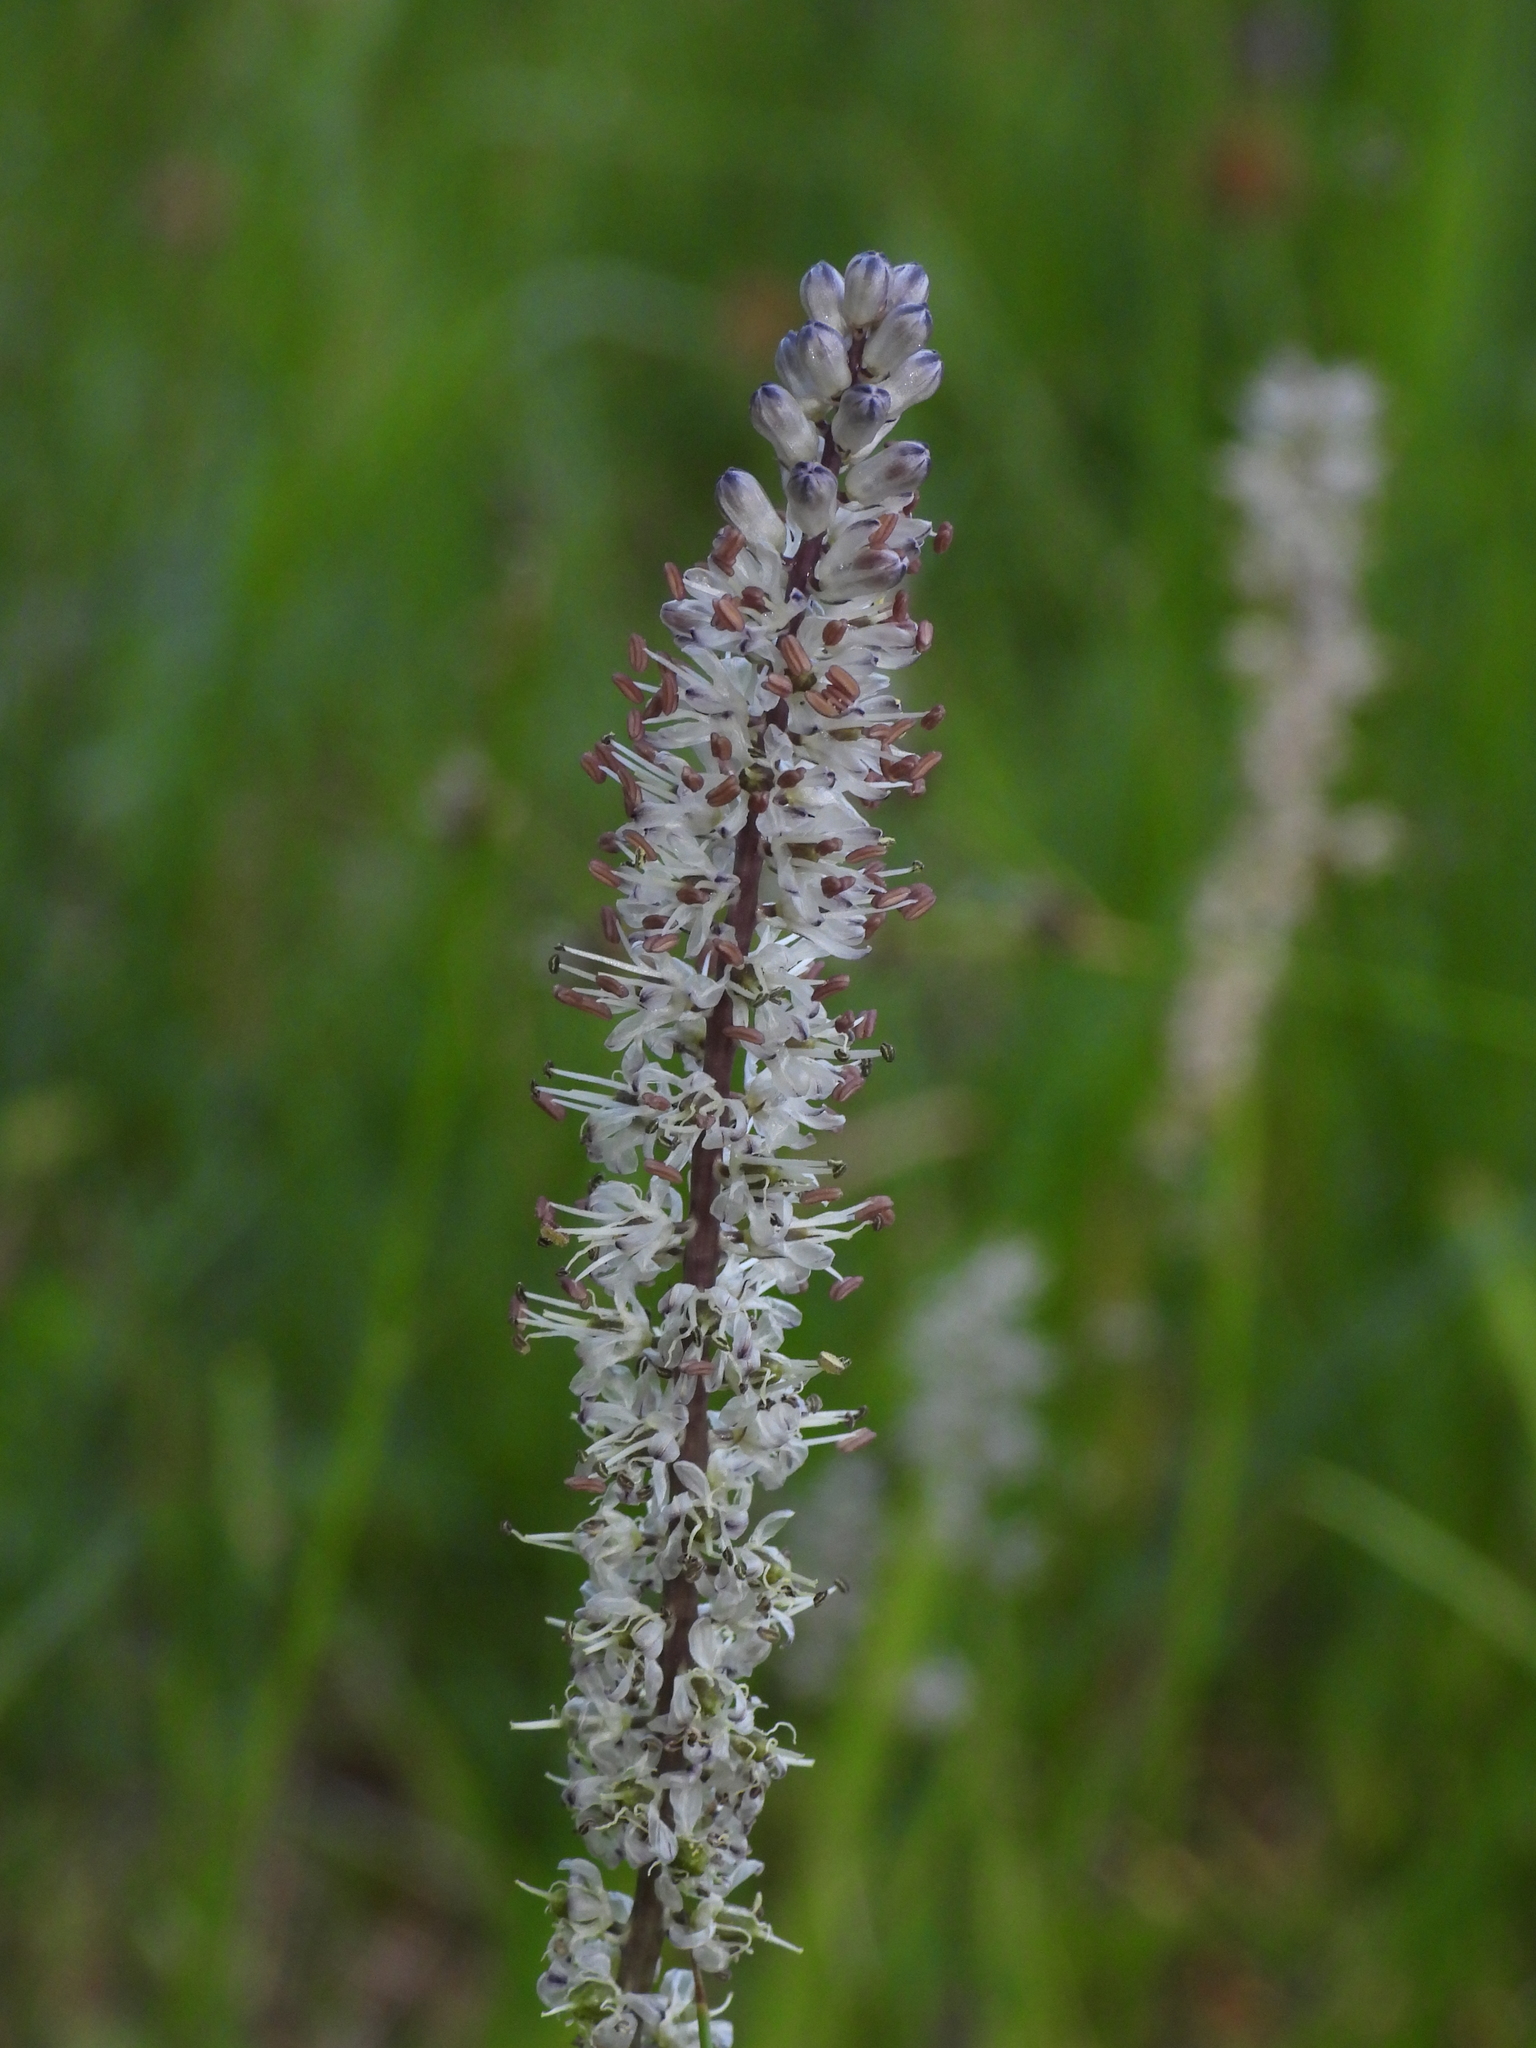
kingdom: Plantae
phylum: Tracheophyta
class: Liliopsida
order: Asparagales
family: Asparagaceae
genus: Hastingsia
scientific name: Hastingsia alba
